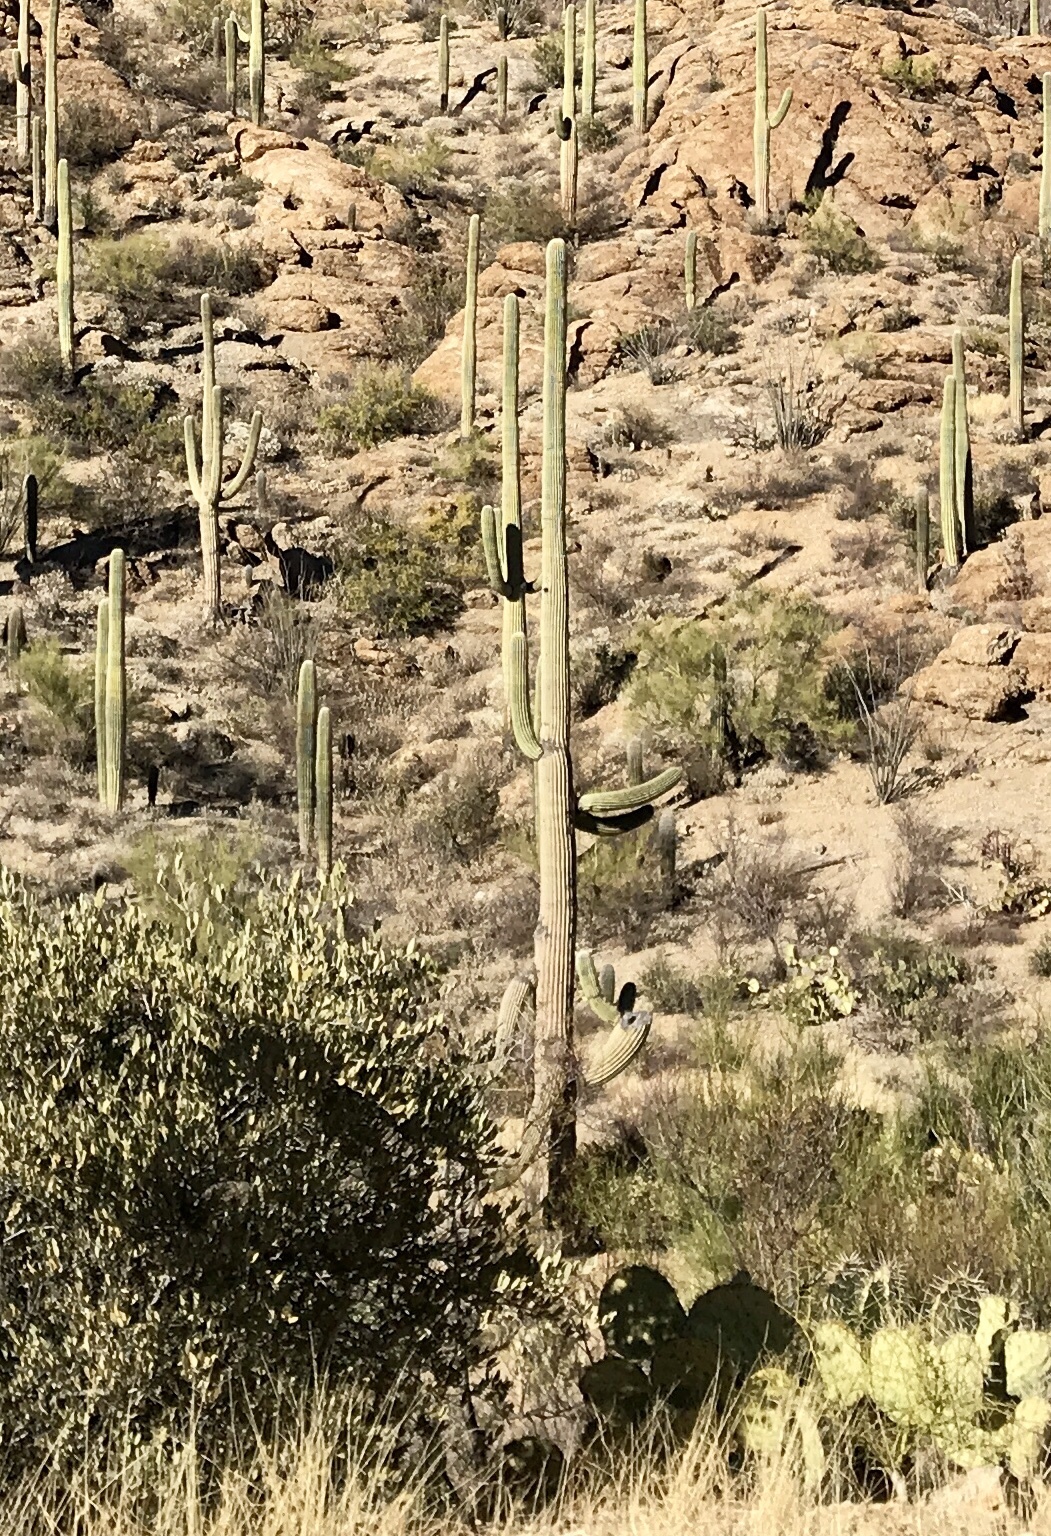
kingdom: Plantae
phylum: Tracheophyta
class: Magnoliopsida
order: Caryophyllales
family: Cactaceae
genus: Carnegiea
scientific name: Carnegiea gigantea
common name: Saguaro
